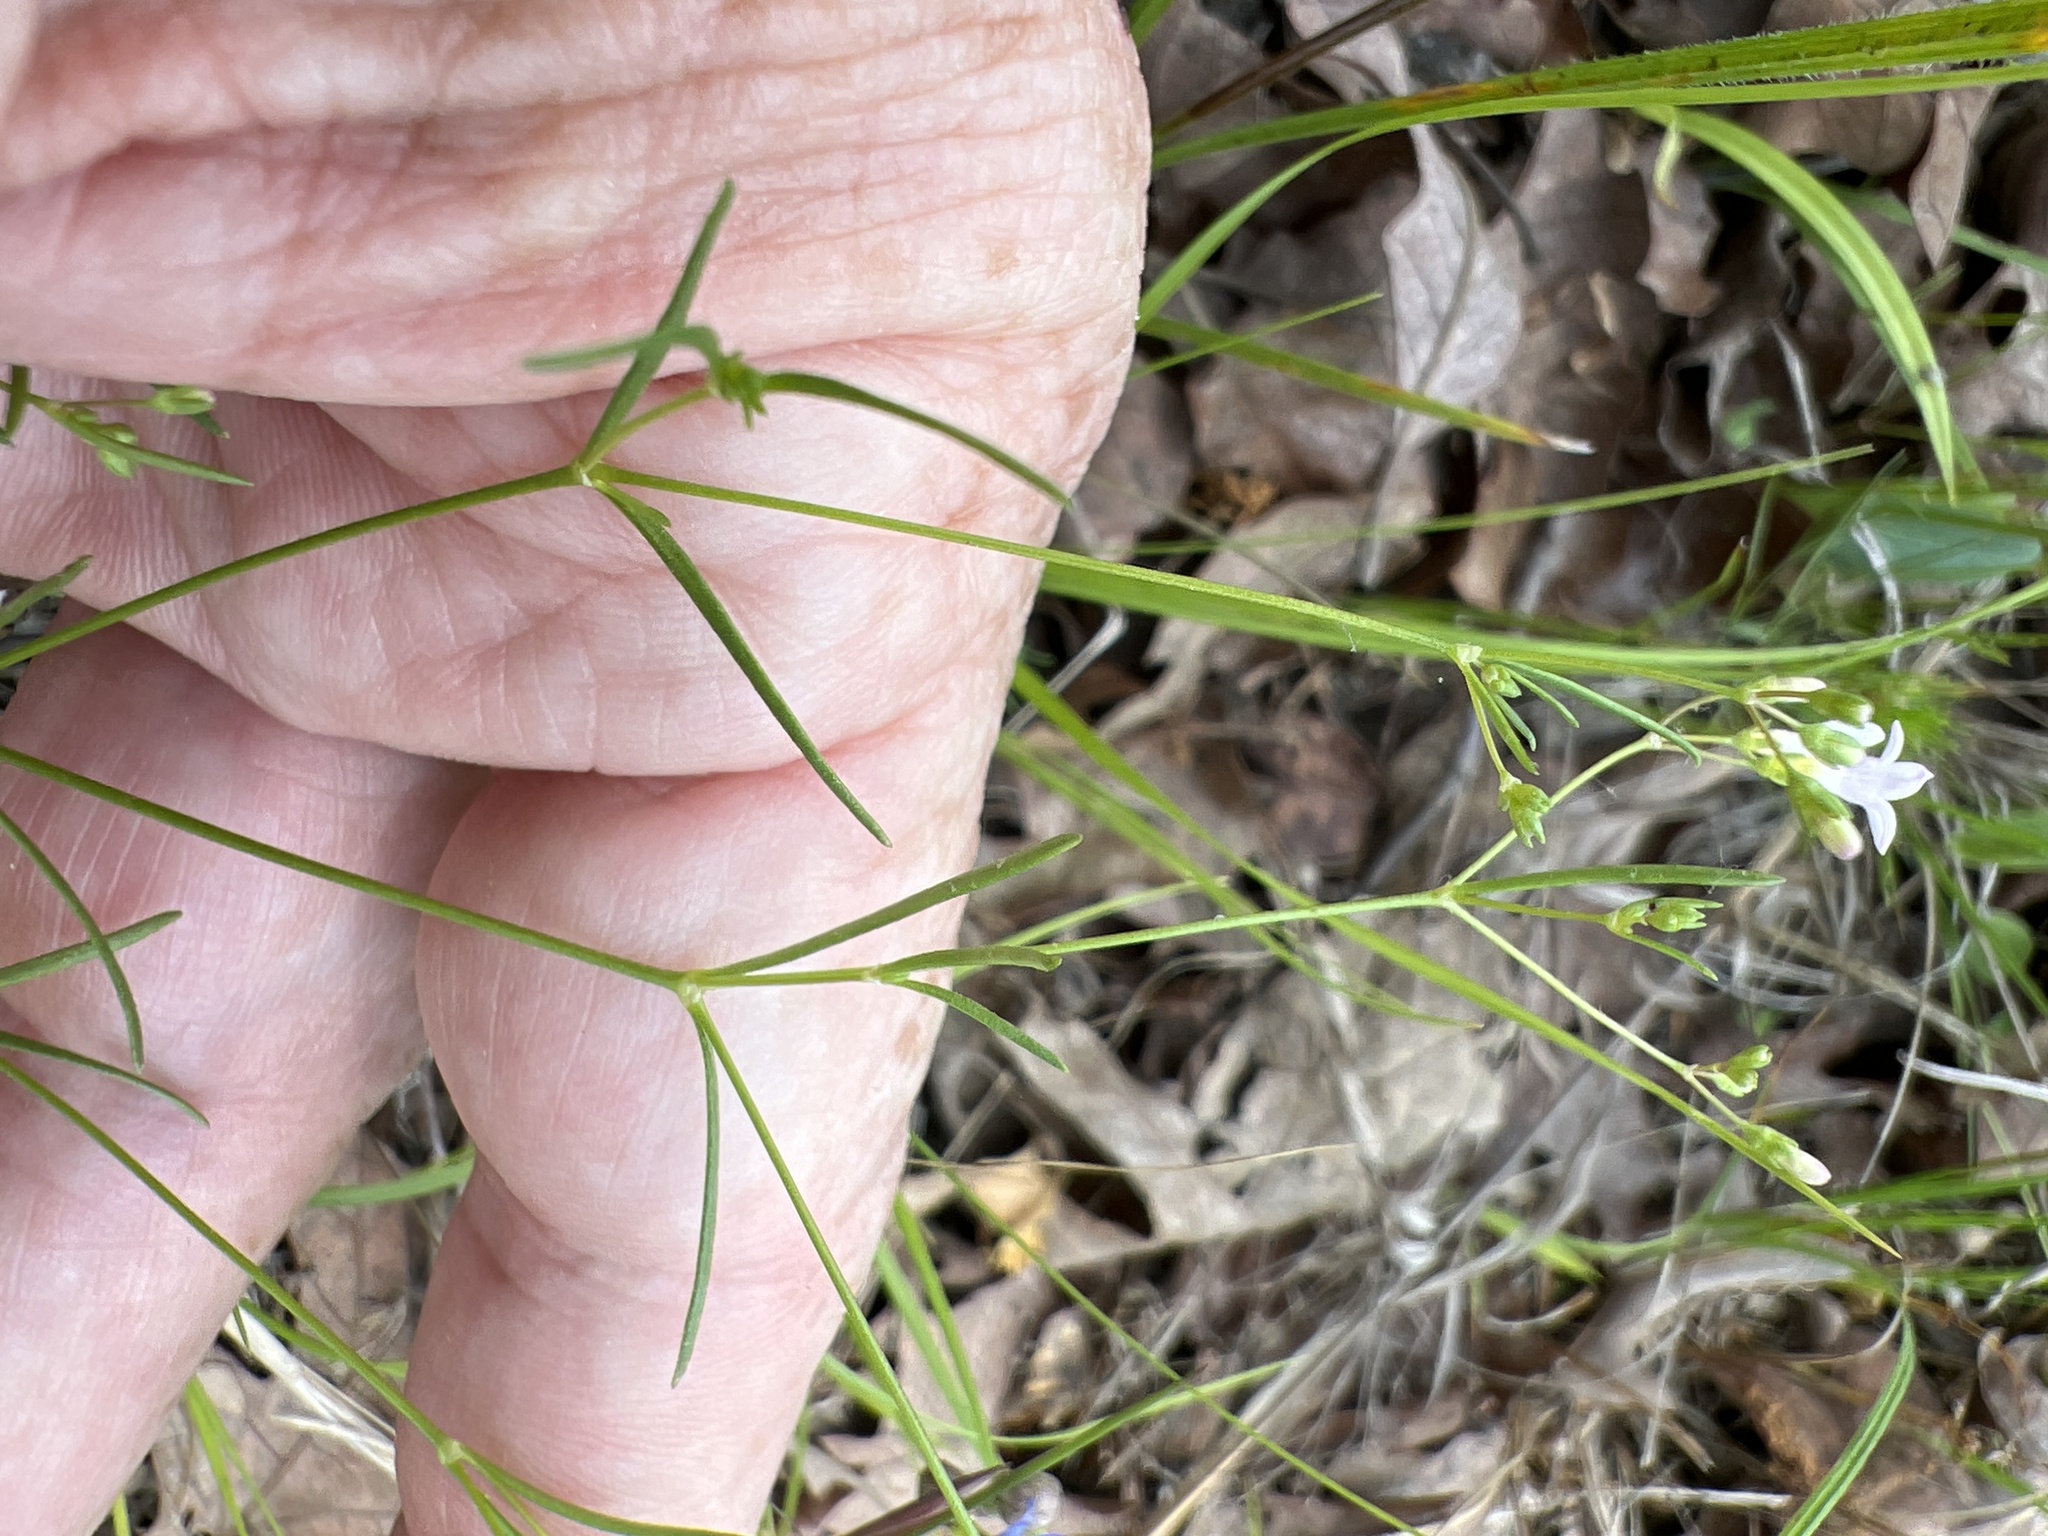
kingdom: Plantae
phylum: Tracheophyta
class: Magnoliopsida
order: Gentianales
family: Rubiaceae
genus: Houstonia
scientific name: Houstonia longifolia
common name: Long-leaved bluets
